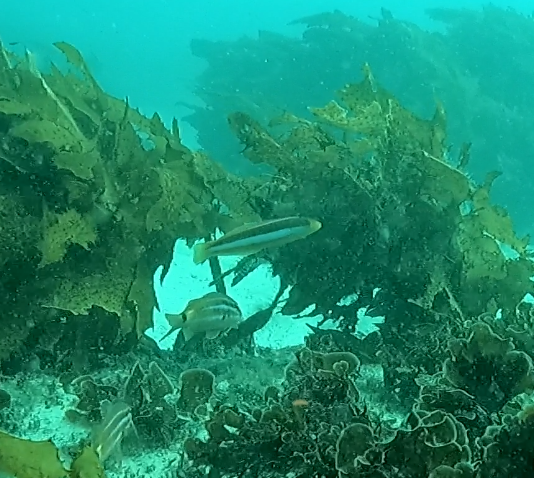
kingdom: Animalia
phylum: Chordata
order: Perciformes
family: Labridae
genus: Ophthalmolepis
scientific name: Ophthalmolepis lineolata
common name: Maori wrasse
